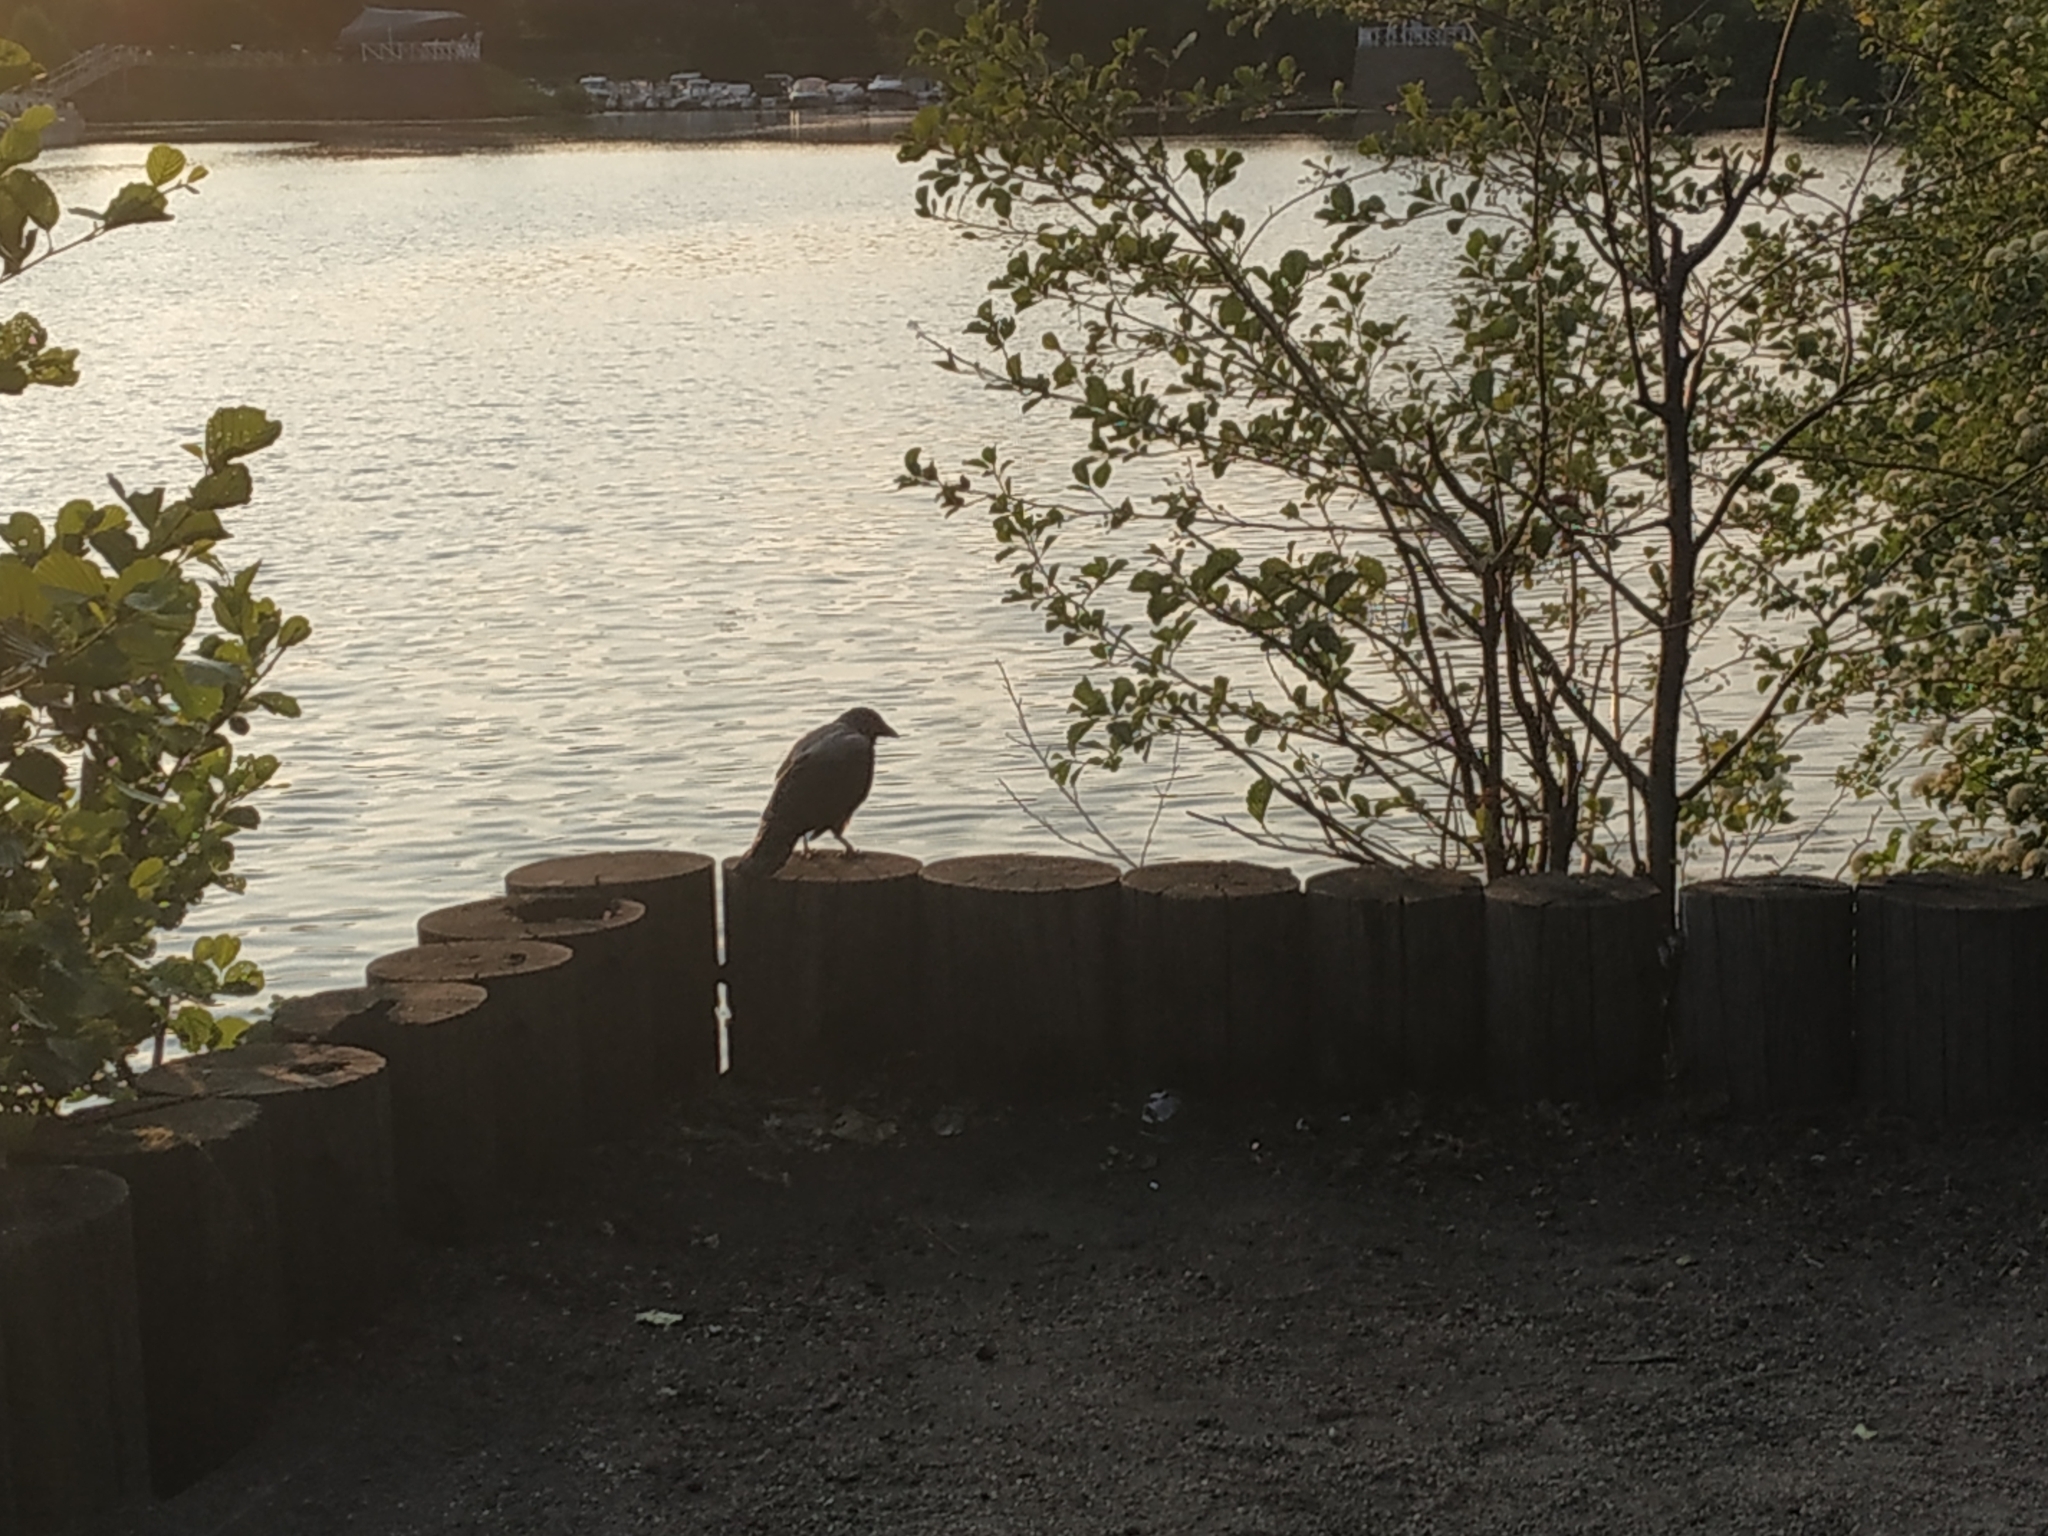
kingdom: Animalia
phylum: Chordata
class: Aves
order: Passeriformes
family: Corvidae
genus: Corvus
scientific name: Corvus cornix
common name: Hooded crow
